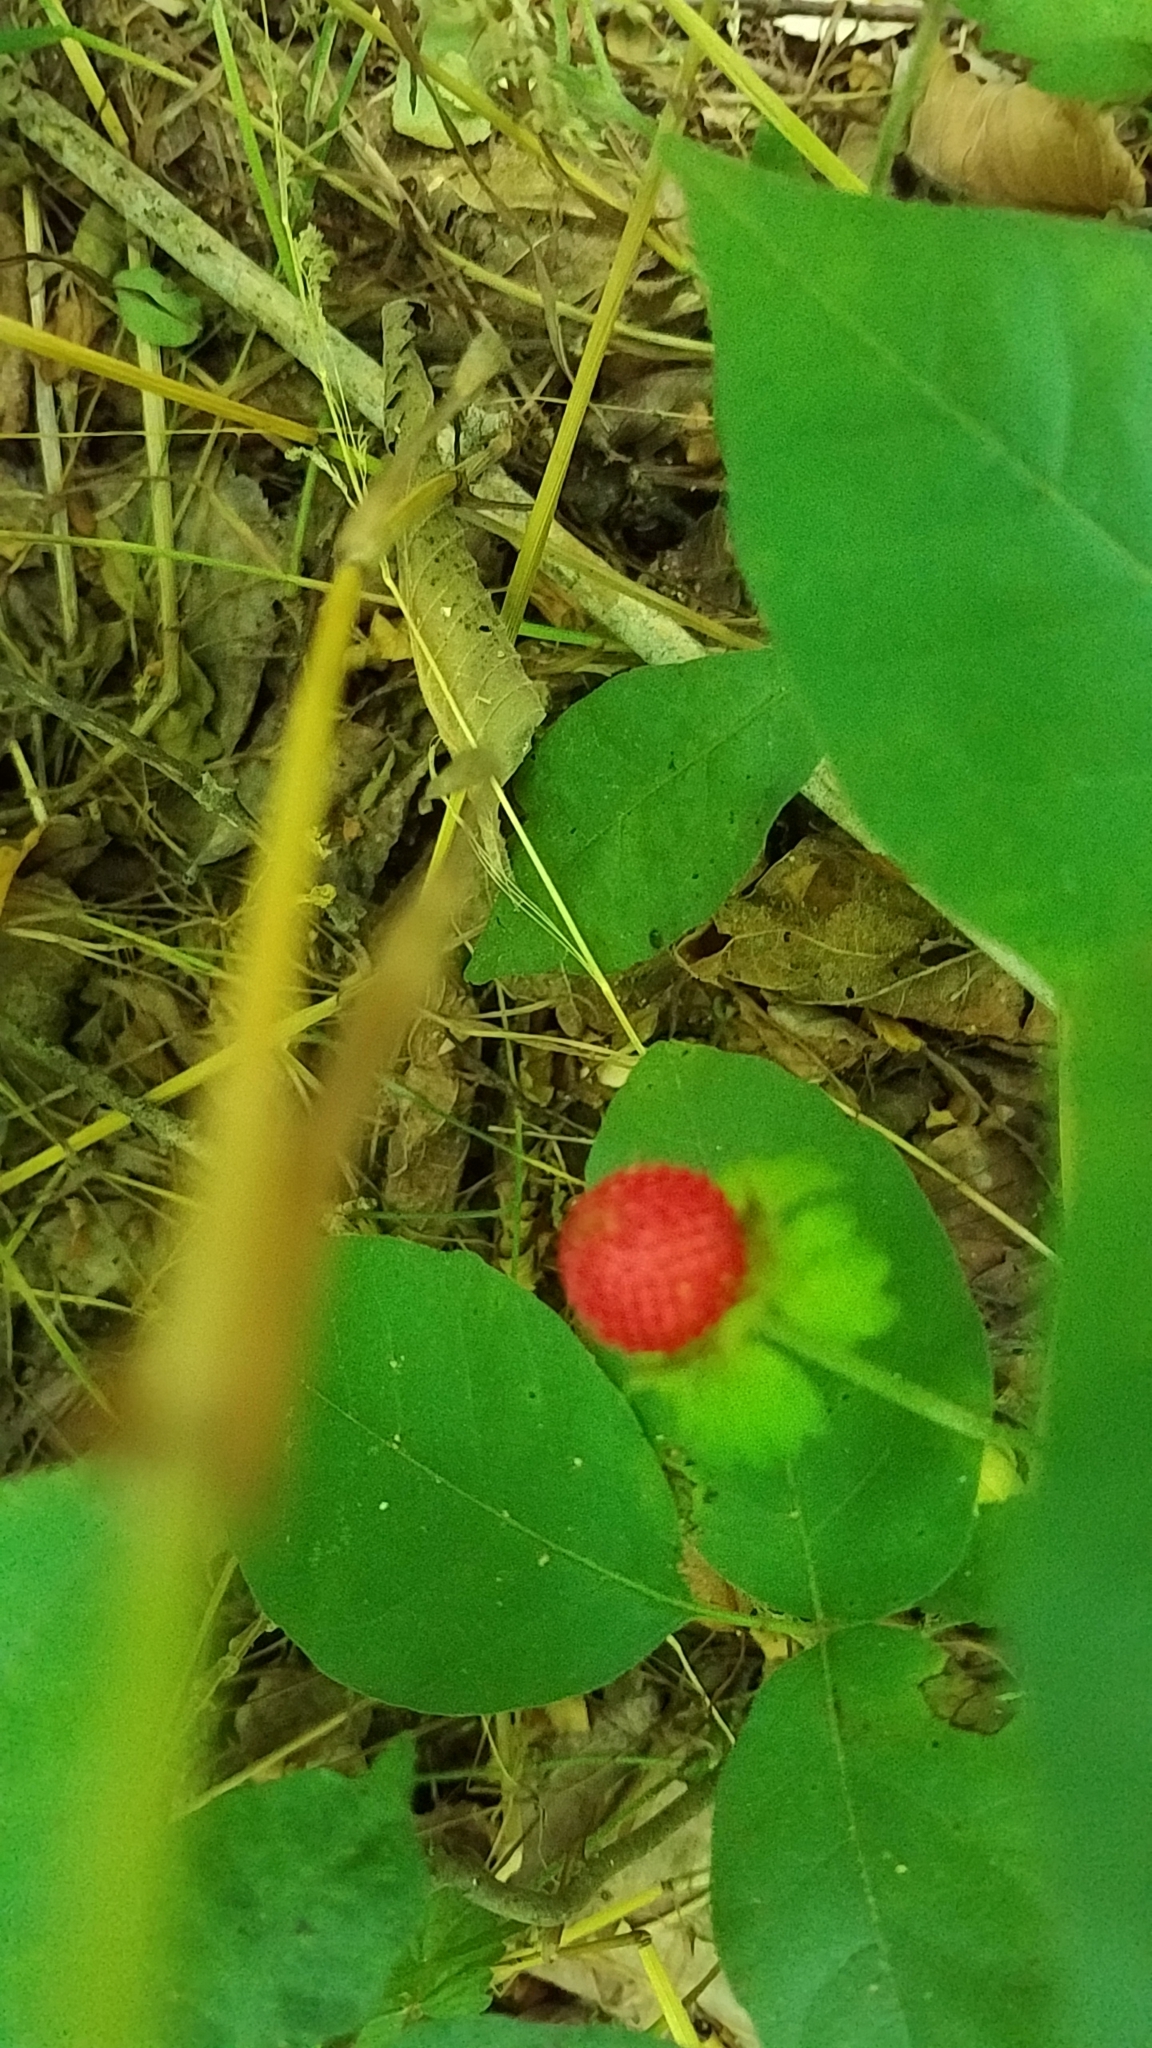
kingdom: Plantae
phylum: Tracheophyta
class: Magnoliopsida
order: Rosales
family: Rosaceae
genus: Potentilla
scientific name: Potentilla indica
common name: Yellow-flowered strawberry
